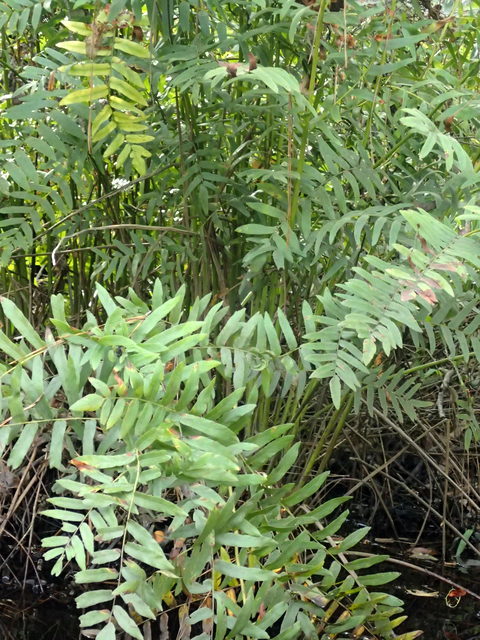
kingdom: Plantae
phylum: Tracheophyta
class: Polypodiopsida
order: Osmundales
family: Osmundaceae
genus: Osmunda
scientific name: Osmunda spectabilis
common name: American royal fern
